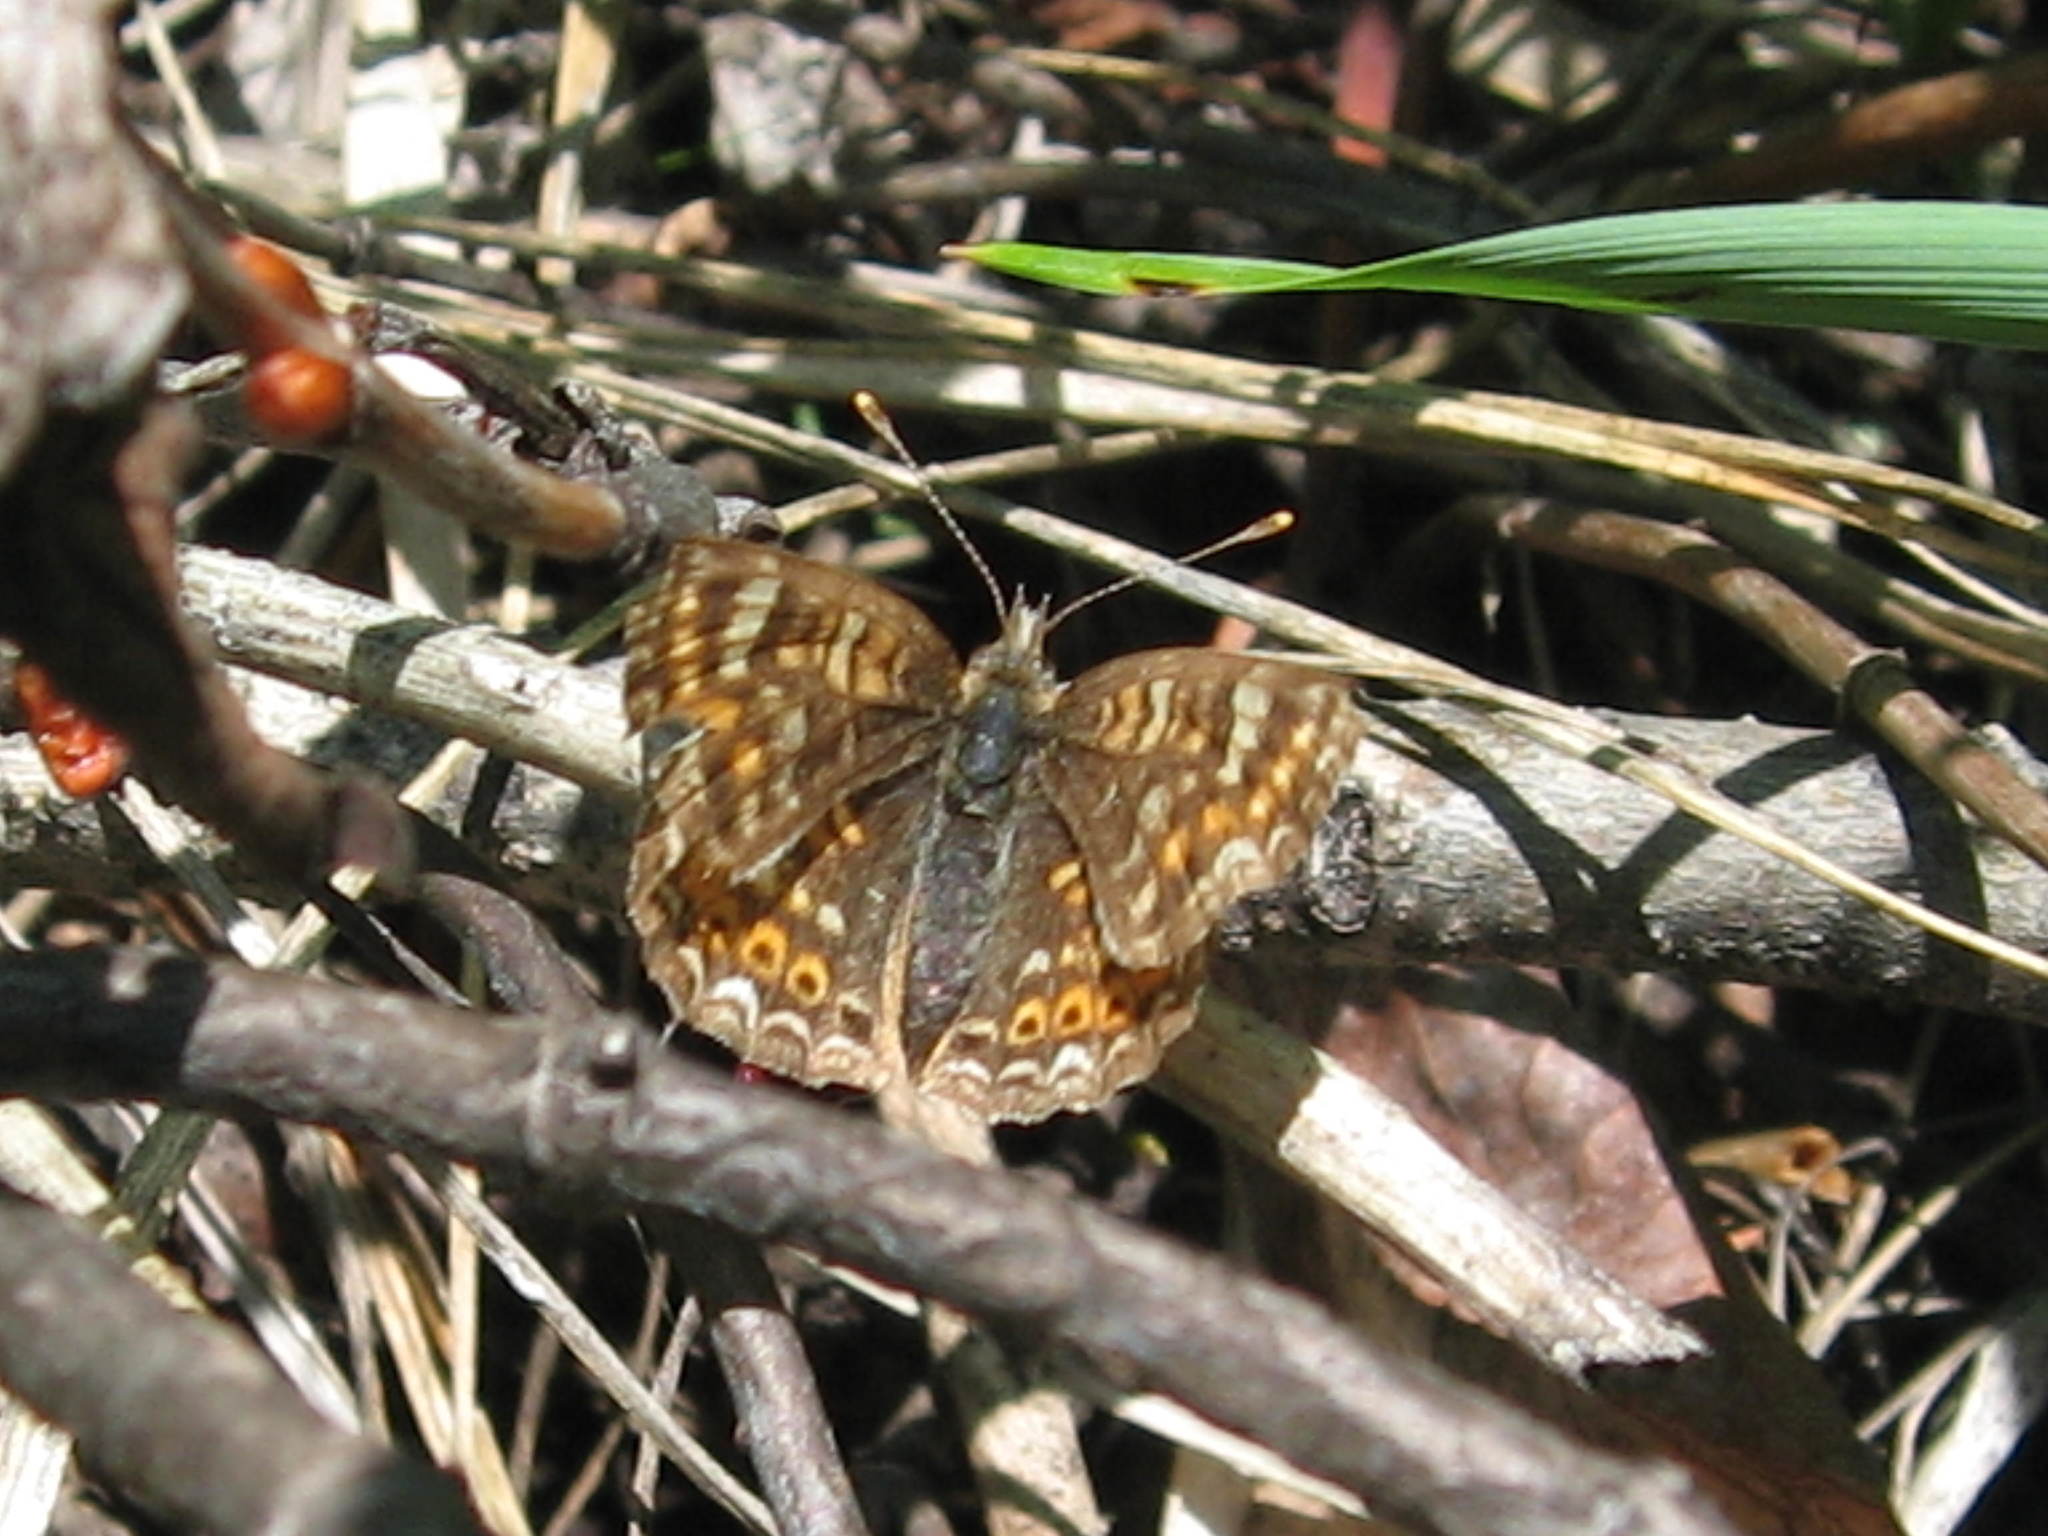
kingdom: Animalia
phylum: Arthropoda
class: Insecta
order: Lepidoptera
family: Nymphalidae
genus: Phyciodes
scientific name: Phyciodes tharos
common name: Pearl crescent
